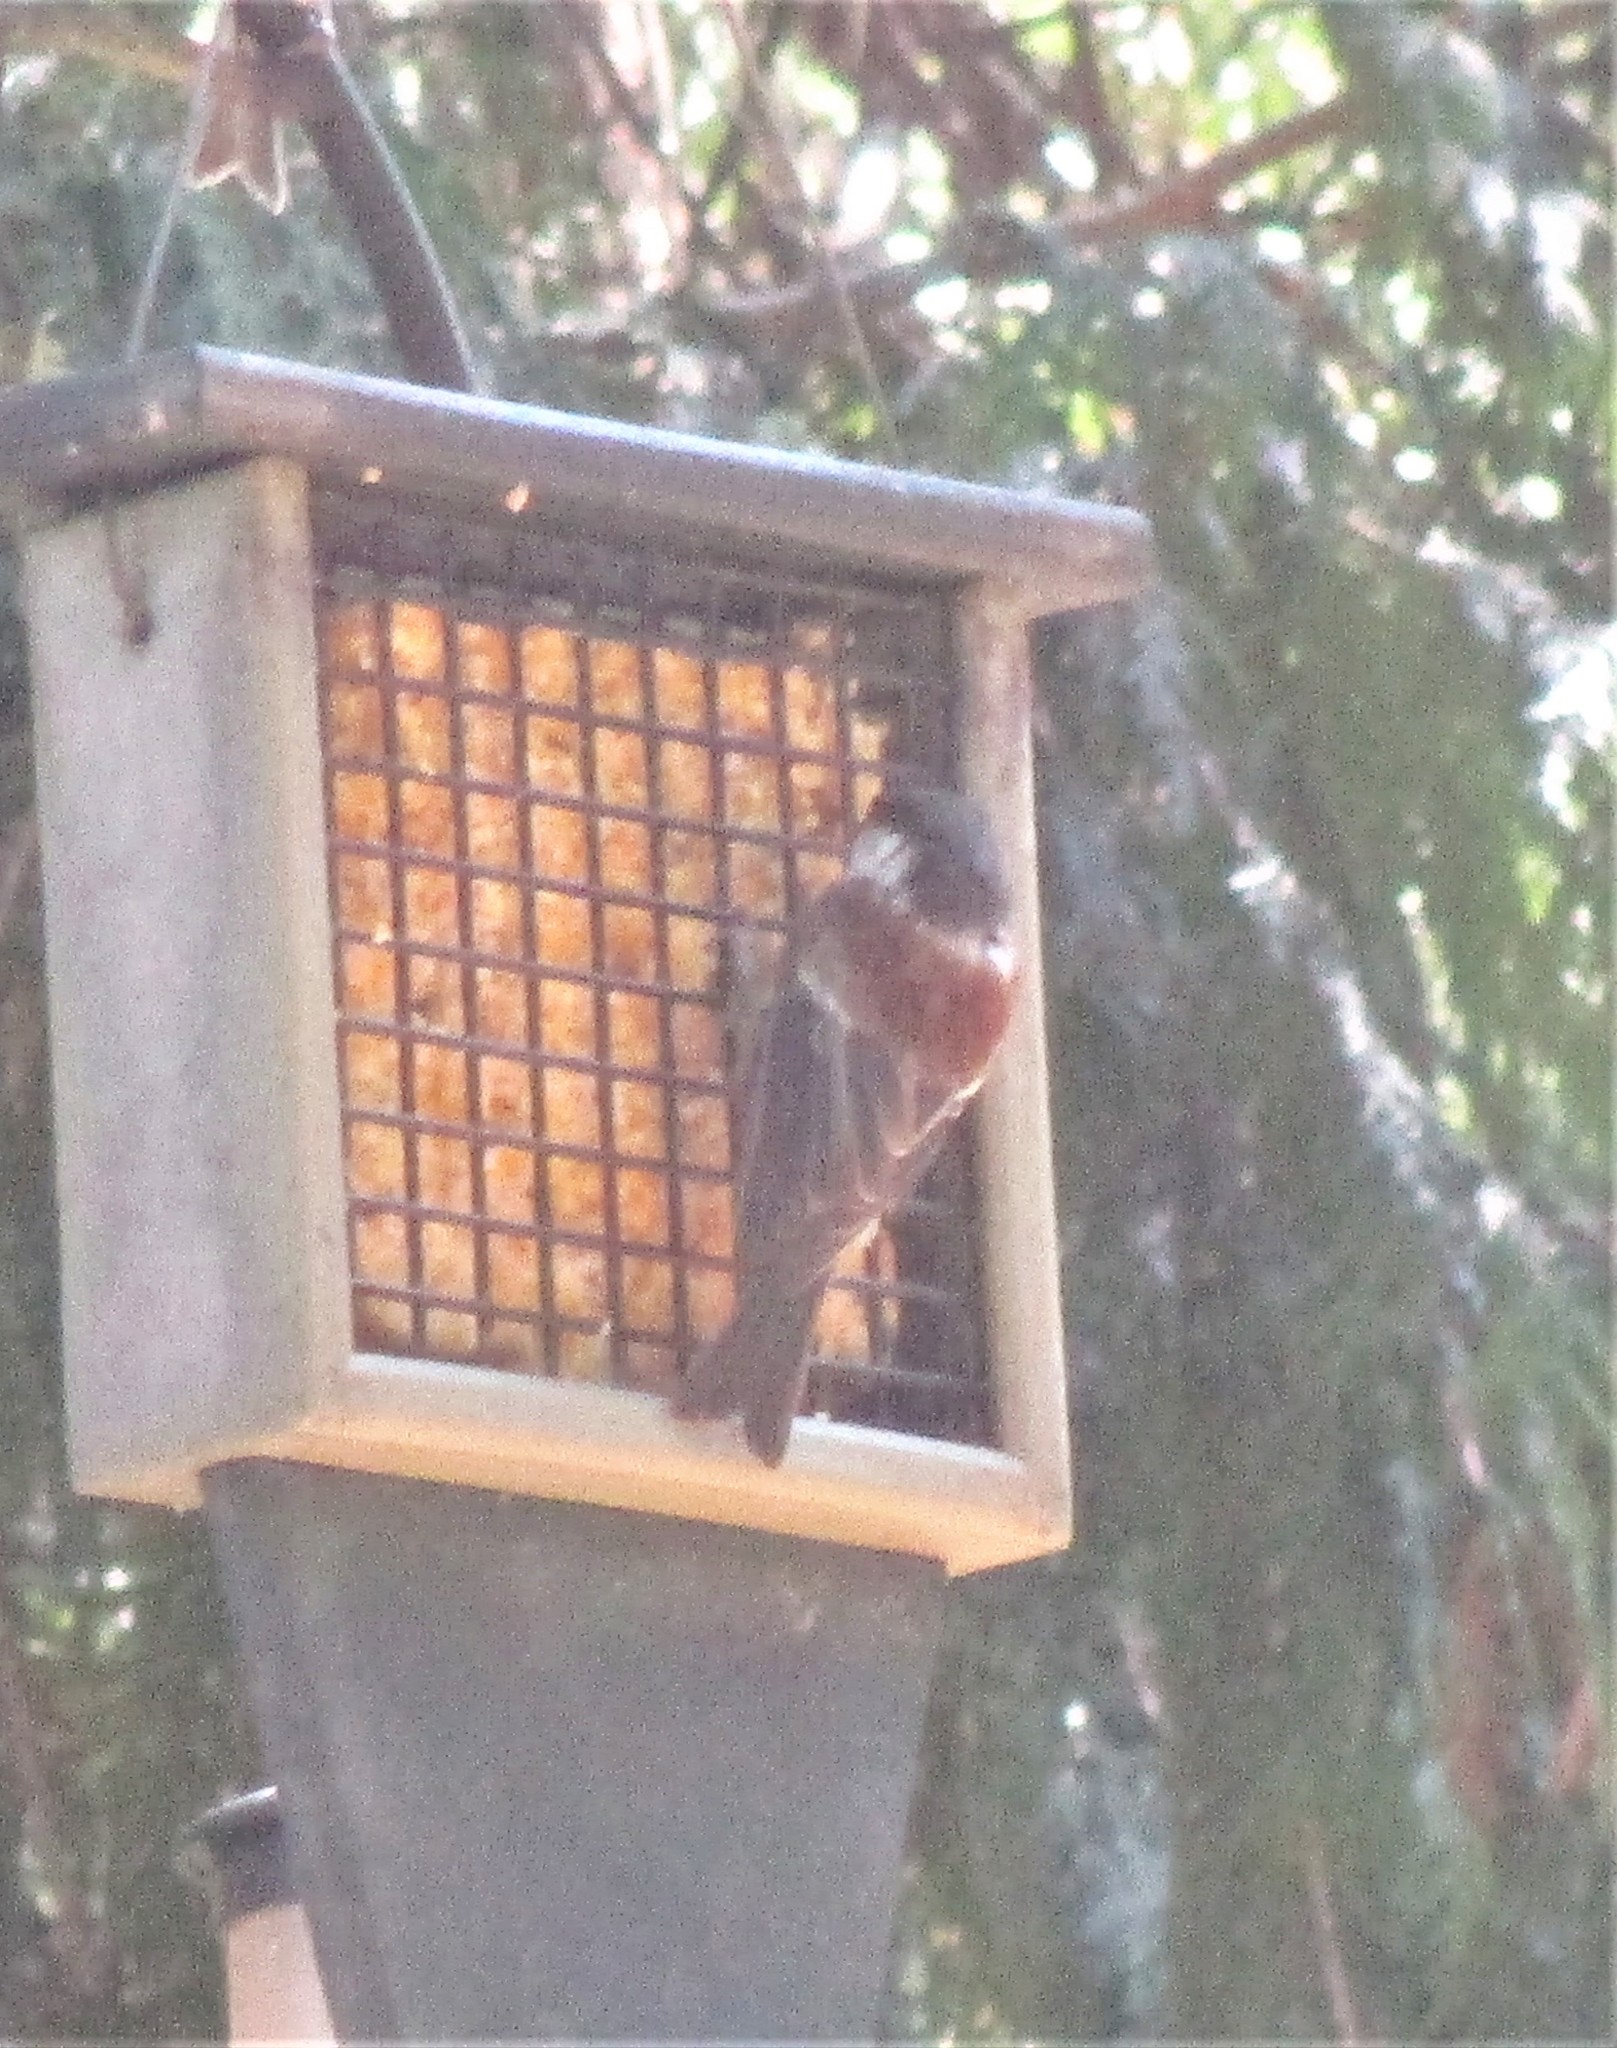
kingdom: Animalia
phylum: Chordata
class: Aves
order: Passeriformes
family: Paridae
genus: Poecile
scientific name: Poecile rufescens
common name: Chestnut-backed chickadee
